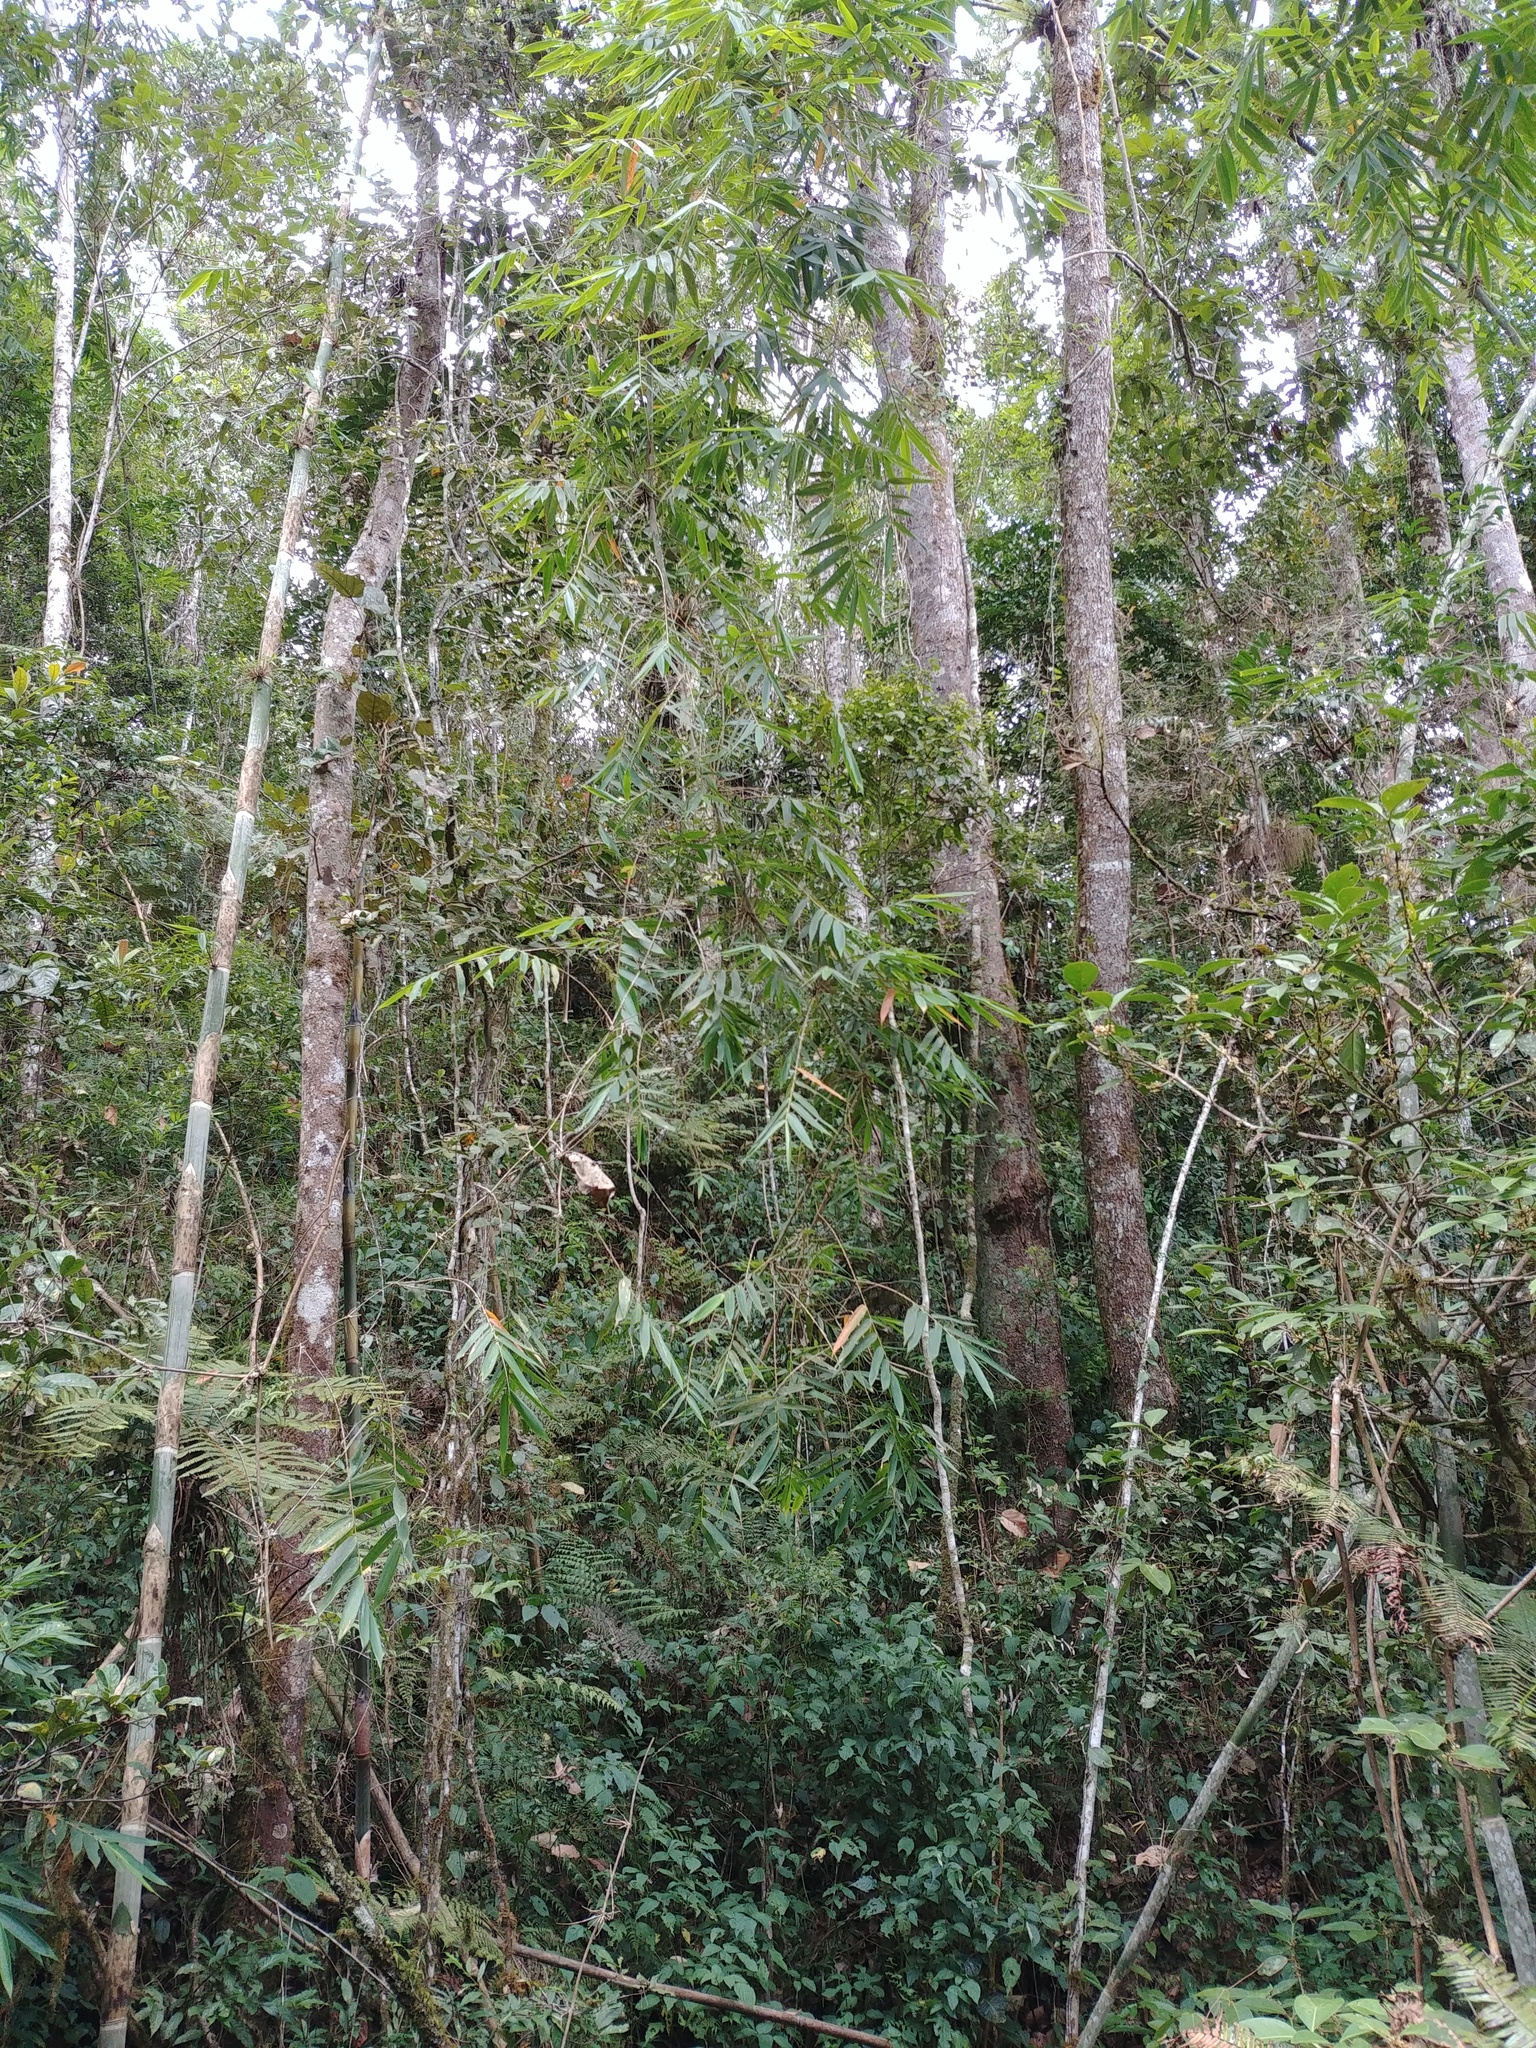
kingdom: Plantae
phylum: Tracheophyta
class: Liliopsida
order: Poales
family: Poaceae
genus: Cathariostachys
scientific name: Cathariostachys madagascariensis
